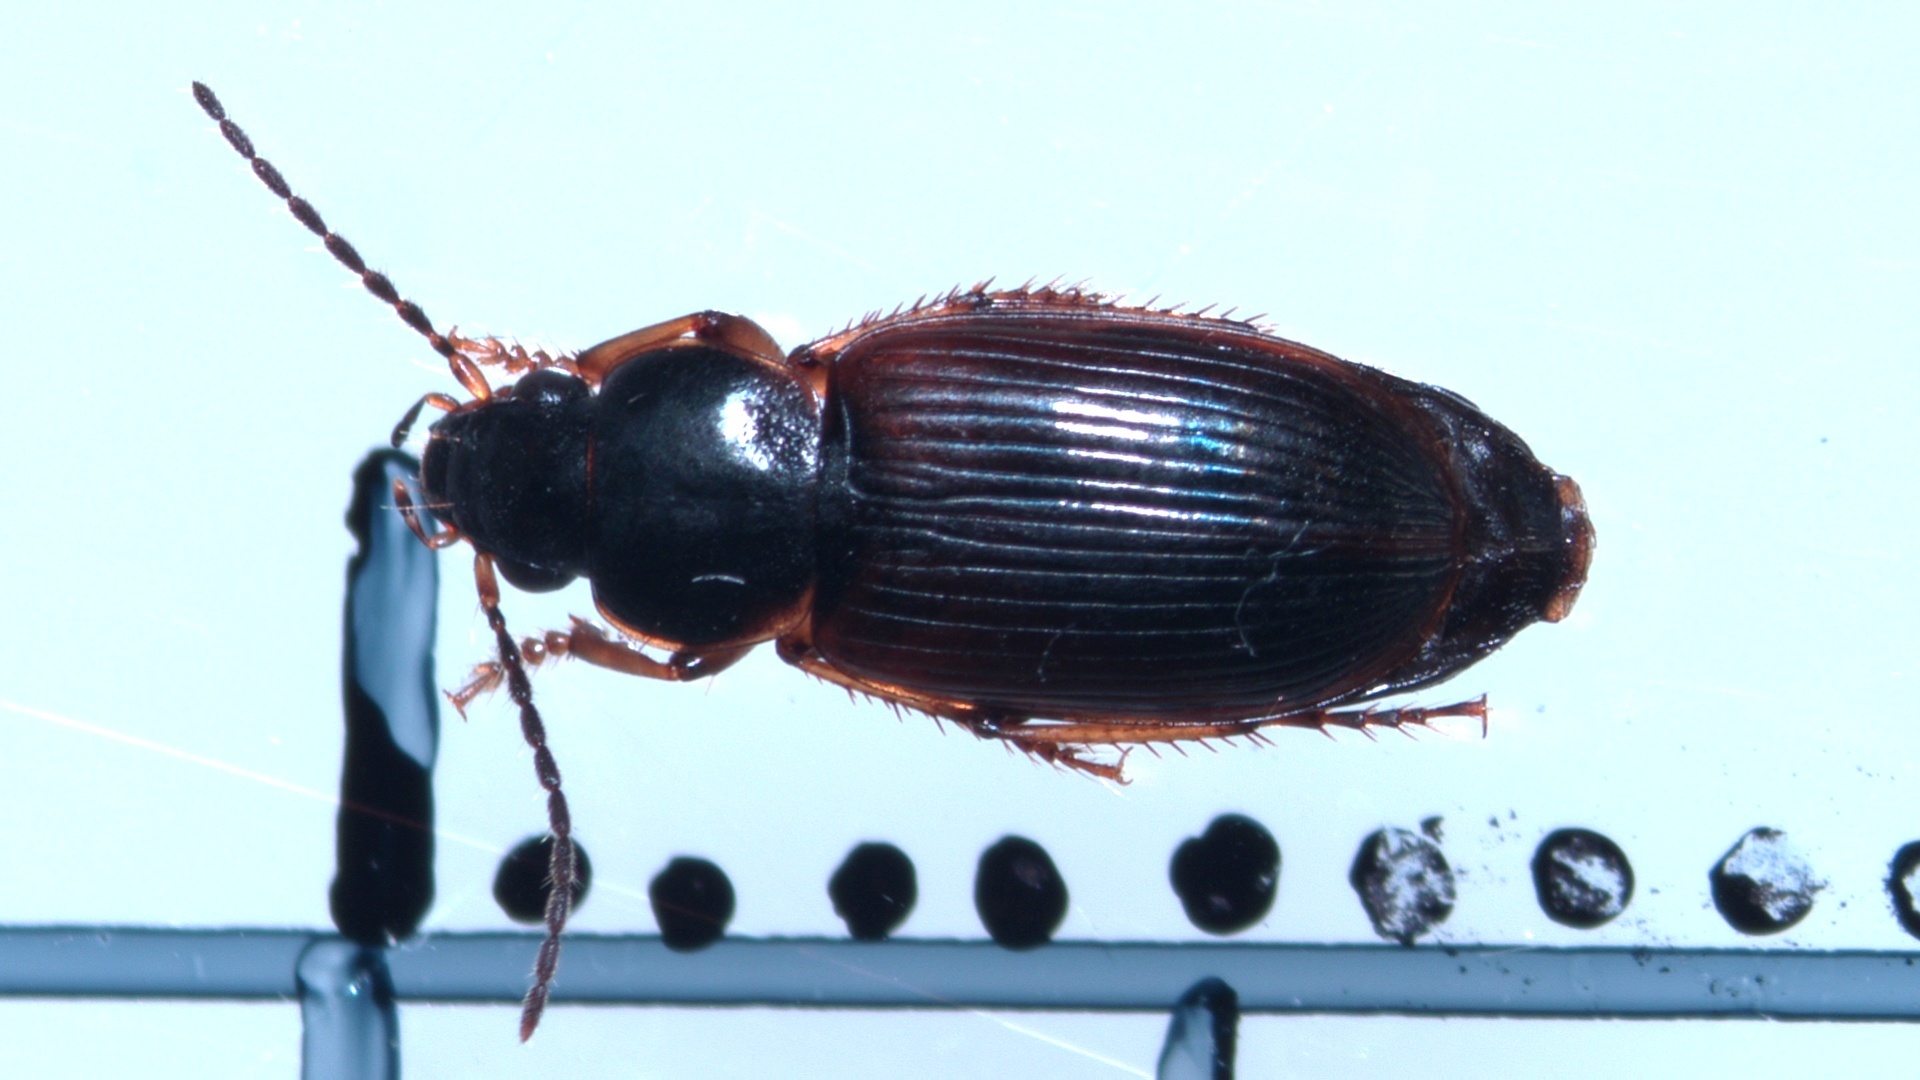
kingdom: Animalia
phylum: Arthropoda
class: Insecta
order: Coleoptera
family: Carabidae
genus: Stenolophus
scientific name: Stenolophus mixtus
